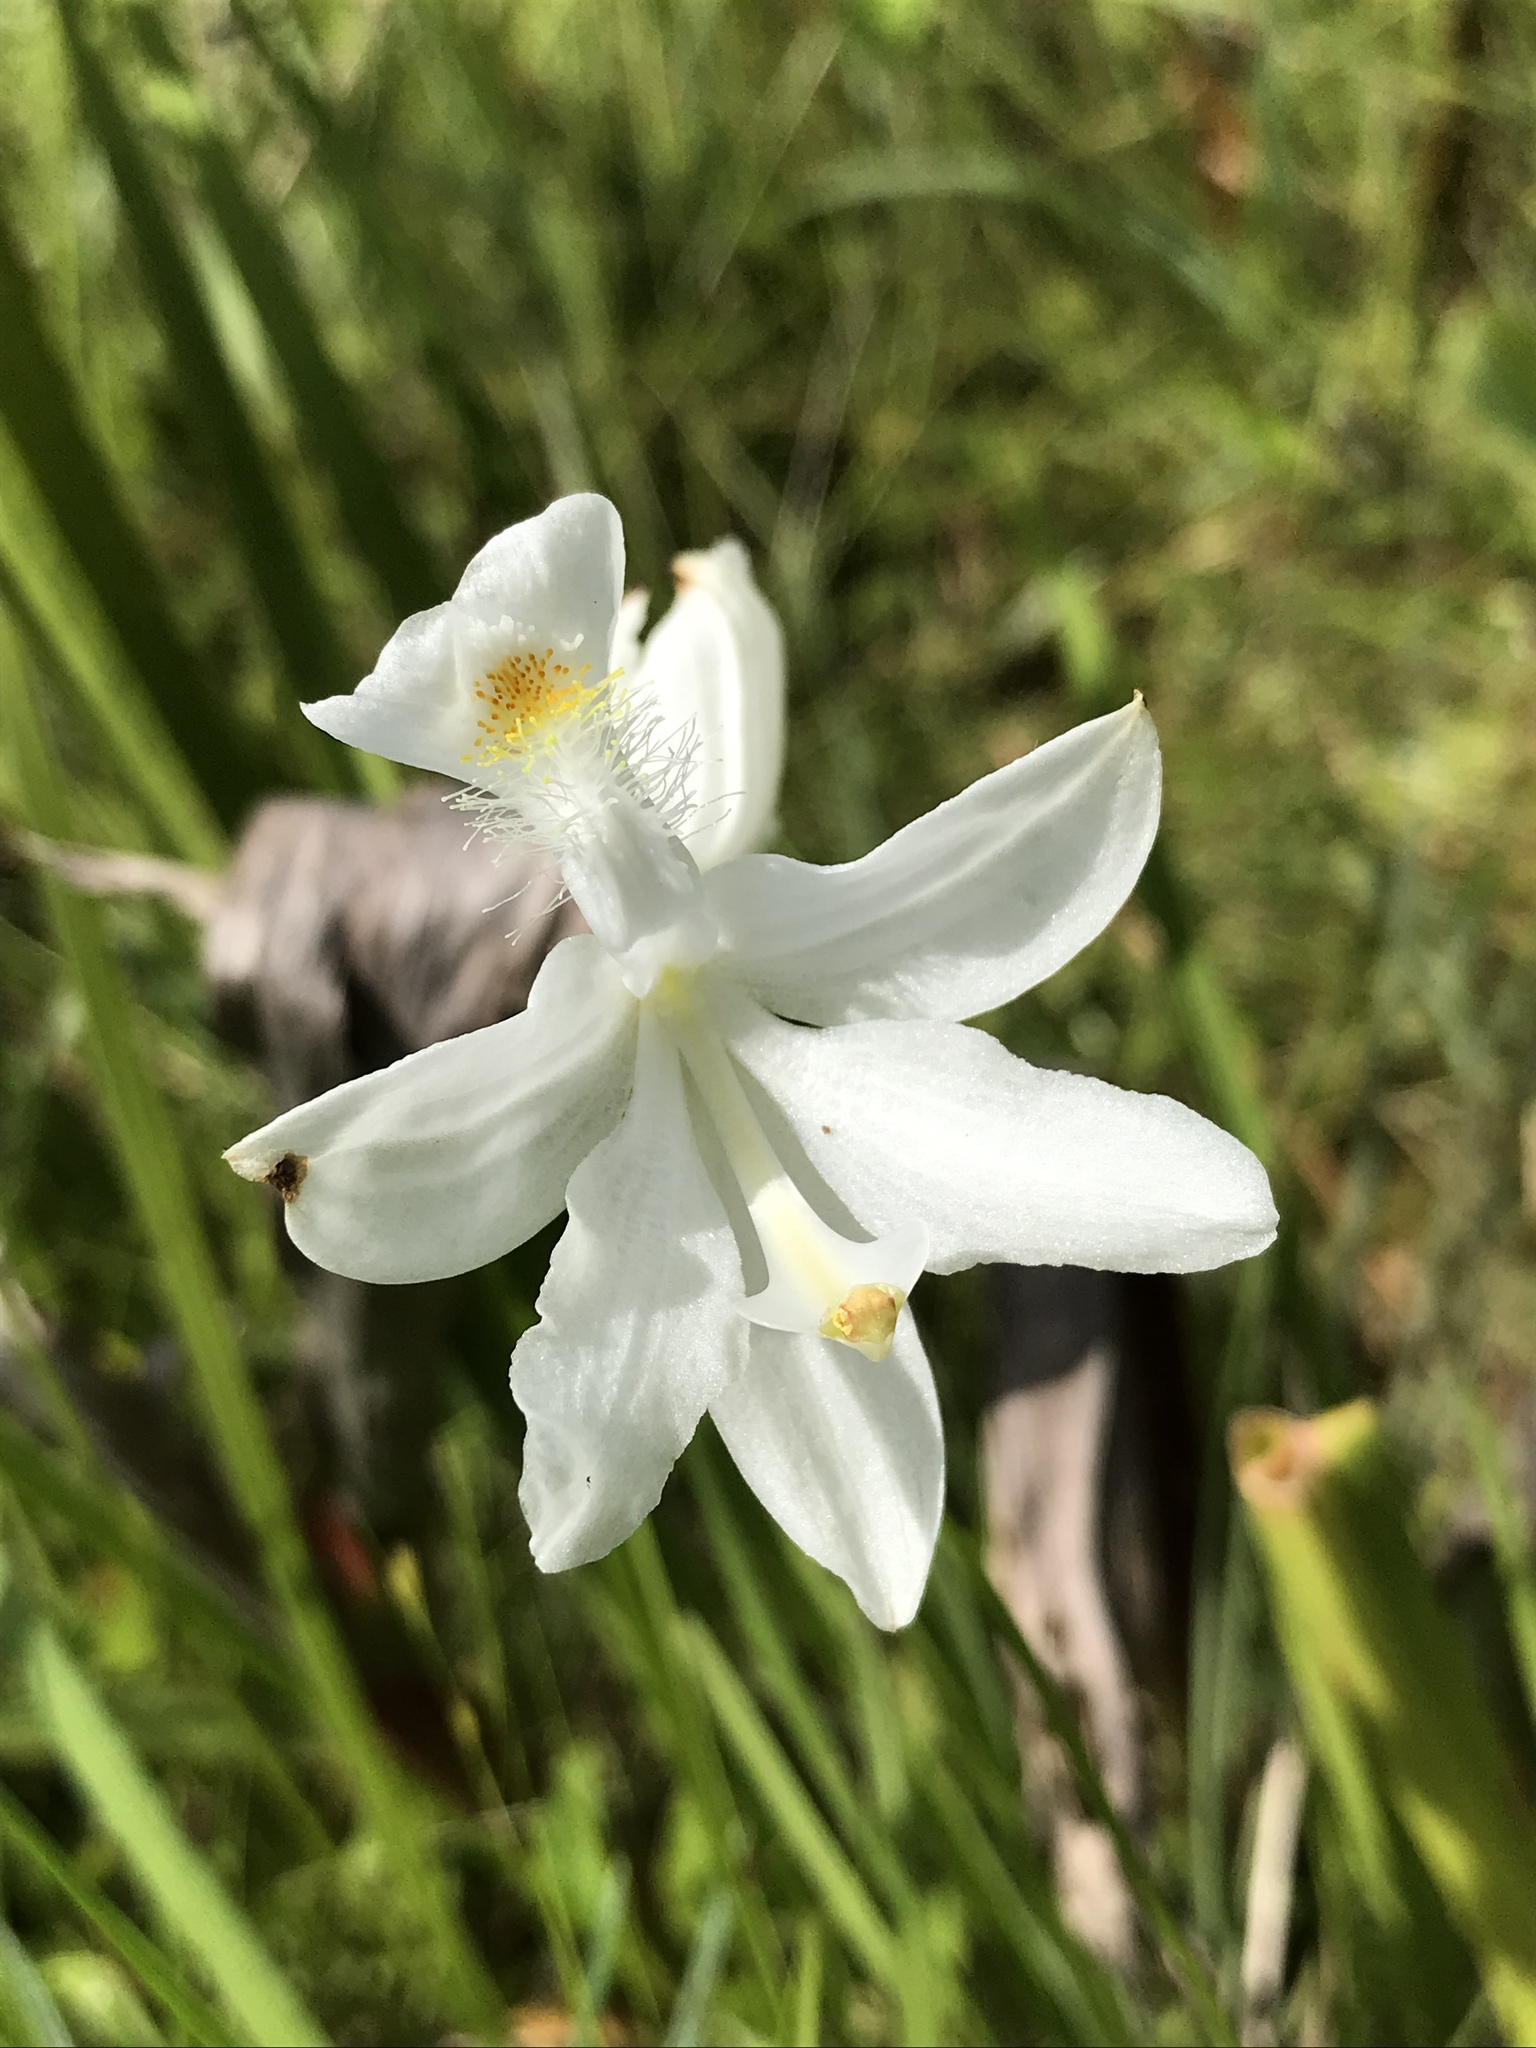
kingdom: Plantae
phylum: Tracheophyta
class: Liliopsida
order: Asparagales
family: Orchidaceae
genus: Calopogon
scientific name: Calopogon tuberosus
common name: Grass-pink
